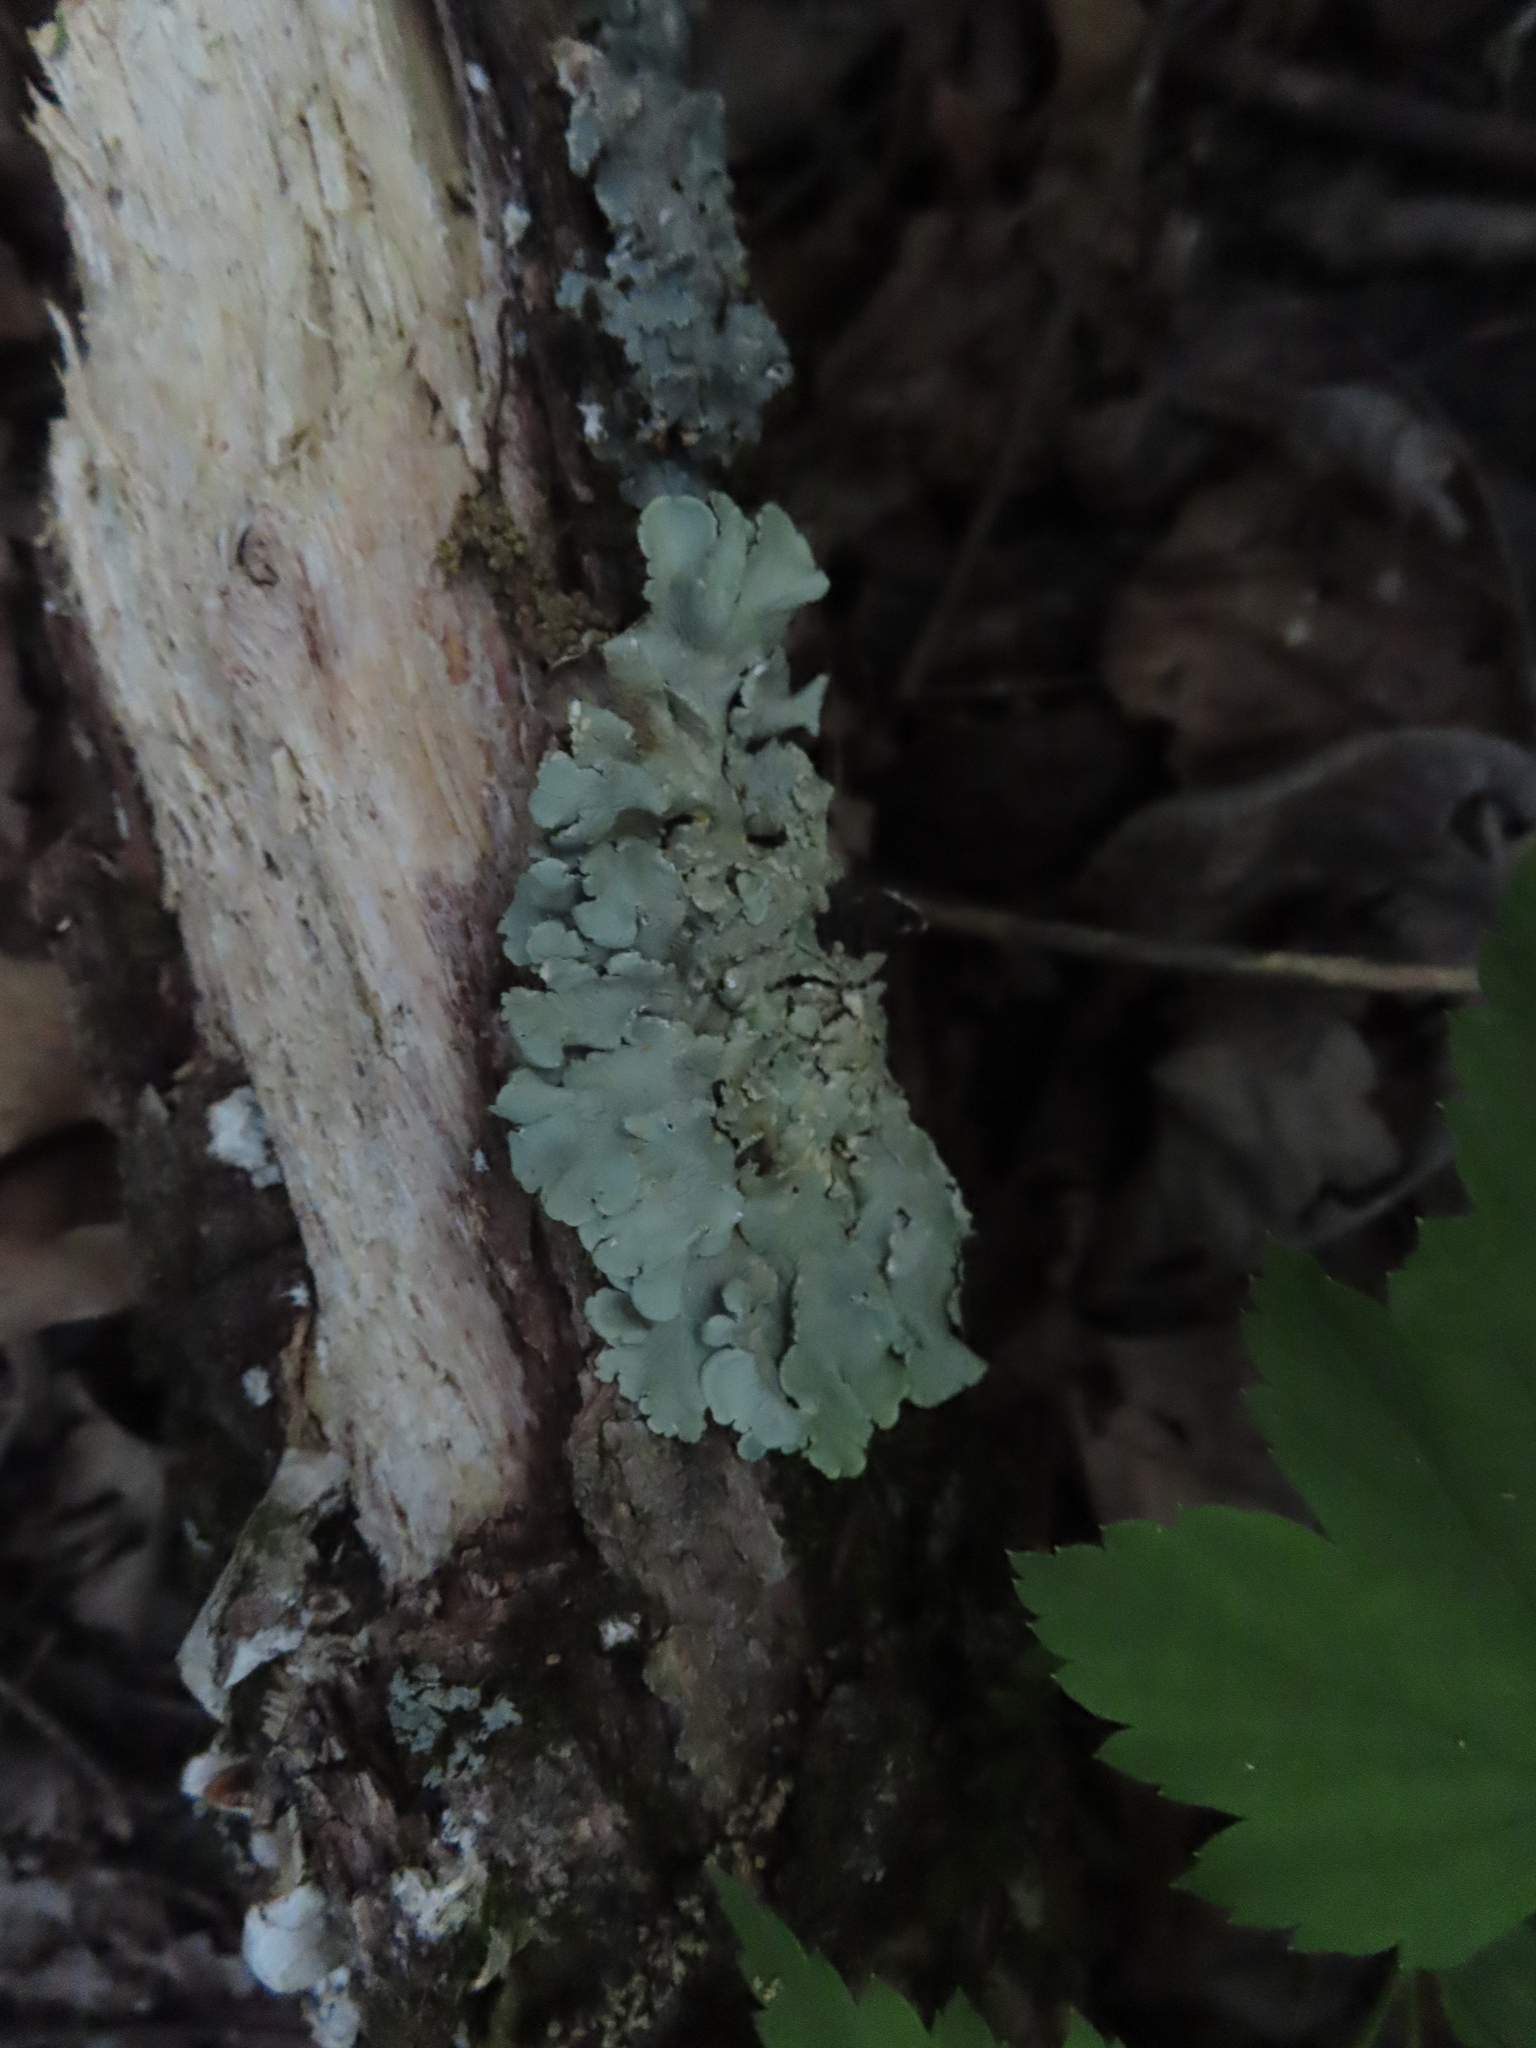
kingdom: Fungi
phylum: Ascomycota
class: Lecanoromycetes
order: Lecanorales
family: Parmeliaceae
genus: Flavoparmelia
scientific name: Flavoparmelia caperata
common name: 40-mile per hour lichen
